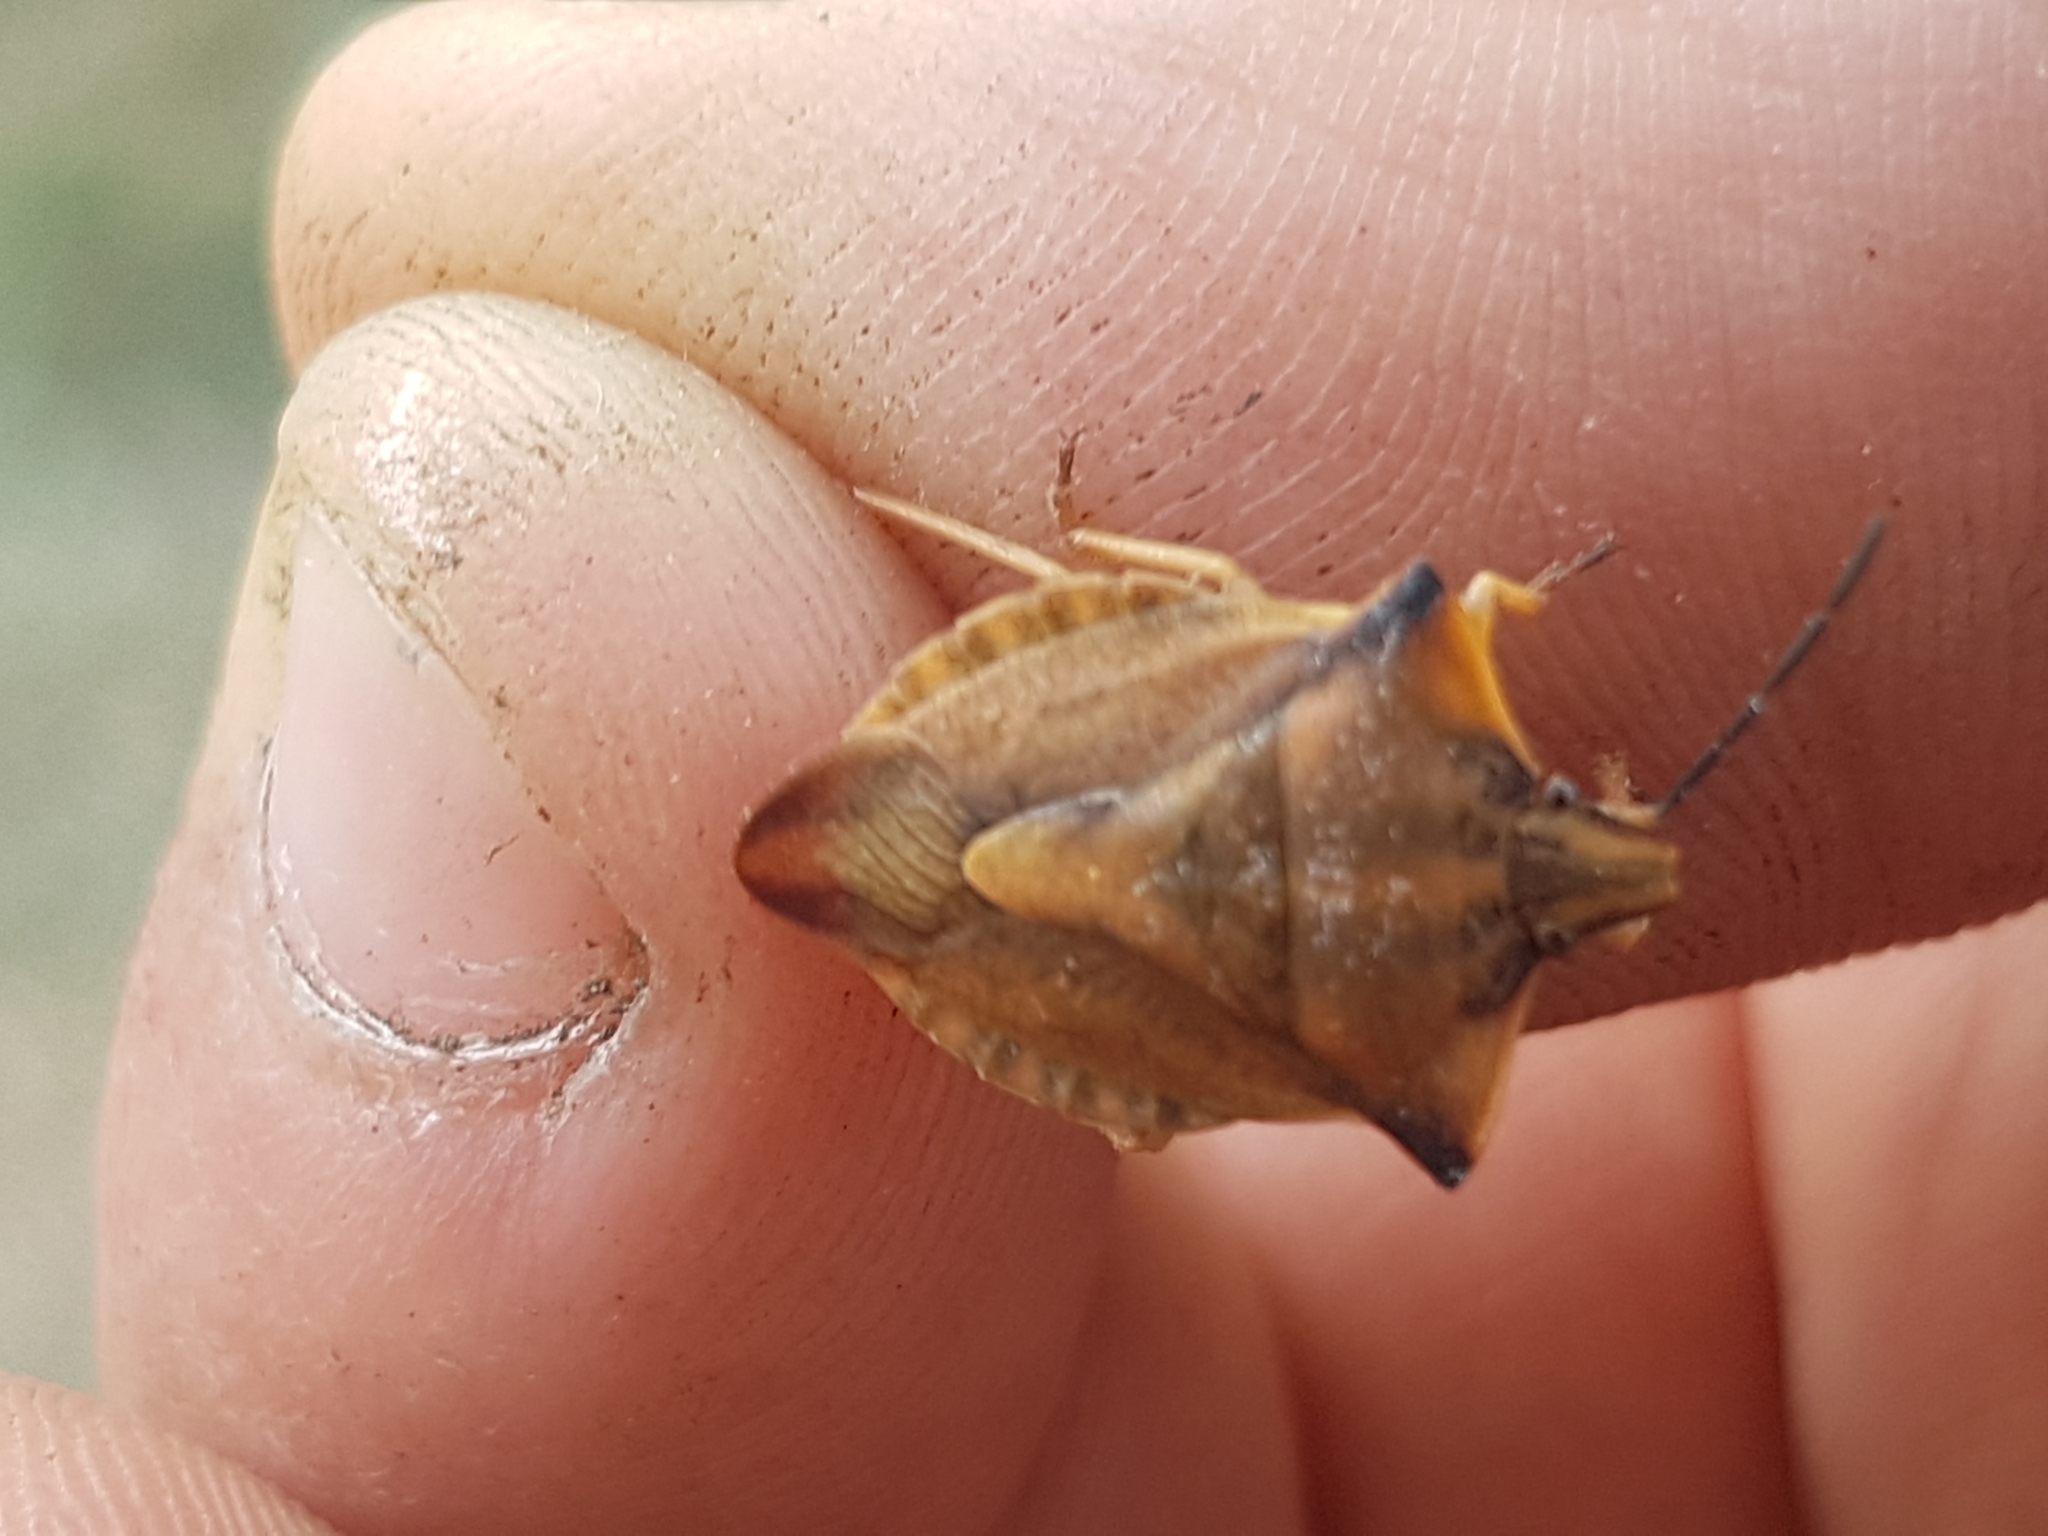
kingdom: Animalia
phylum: Arthropoda
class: Insecta
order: Hemiptera
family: Pentatomidae
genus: Carpocoris
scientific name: Carpocoris fuscispinus
